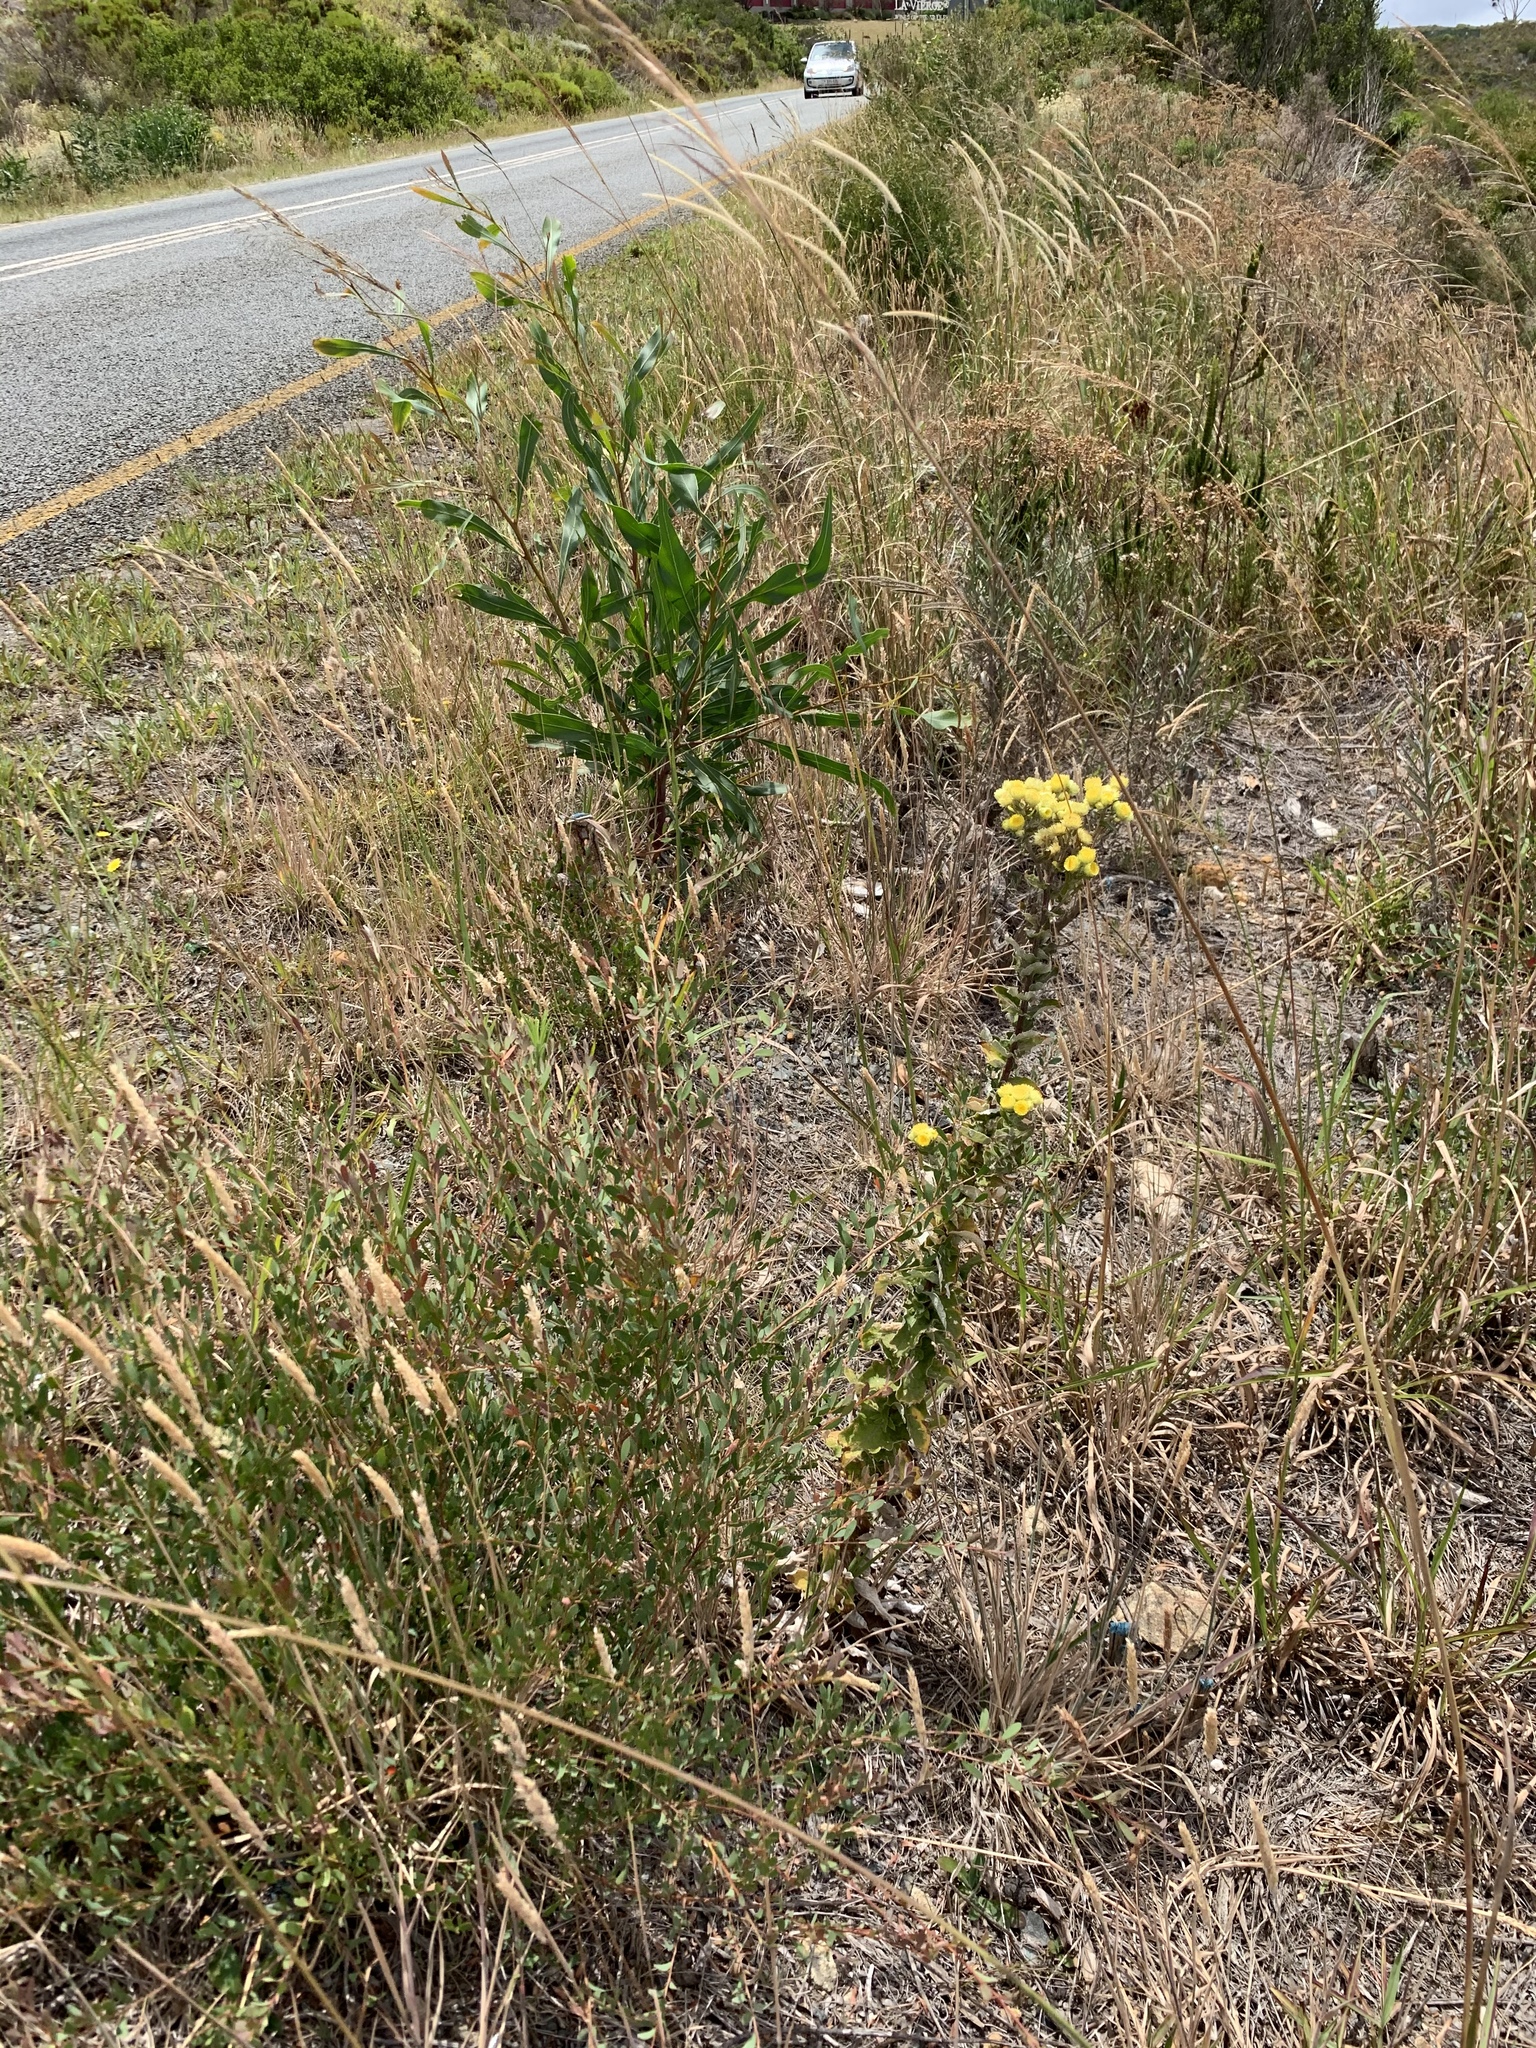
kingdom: Plantae
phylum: Tracheophyta
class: Magnoliopsida
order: Asterales
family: Asteraceae
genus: Helichrysum
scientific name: Helichrysum foetidum
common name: Stinking everlasting
